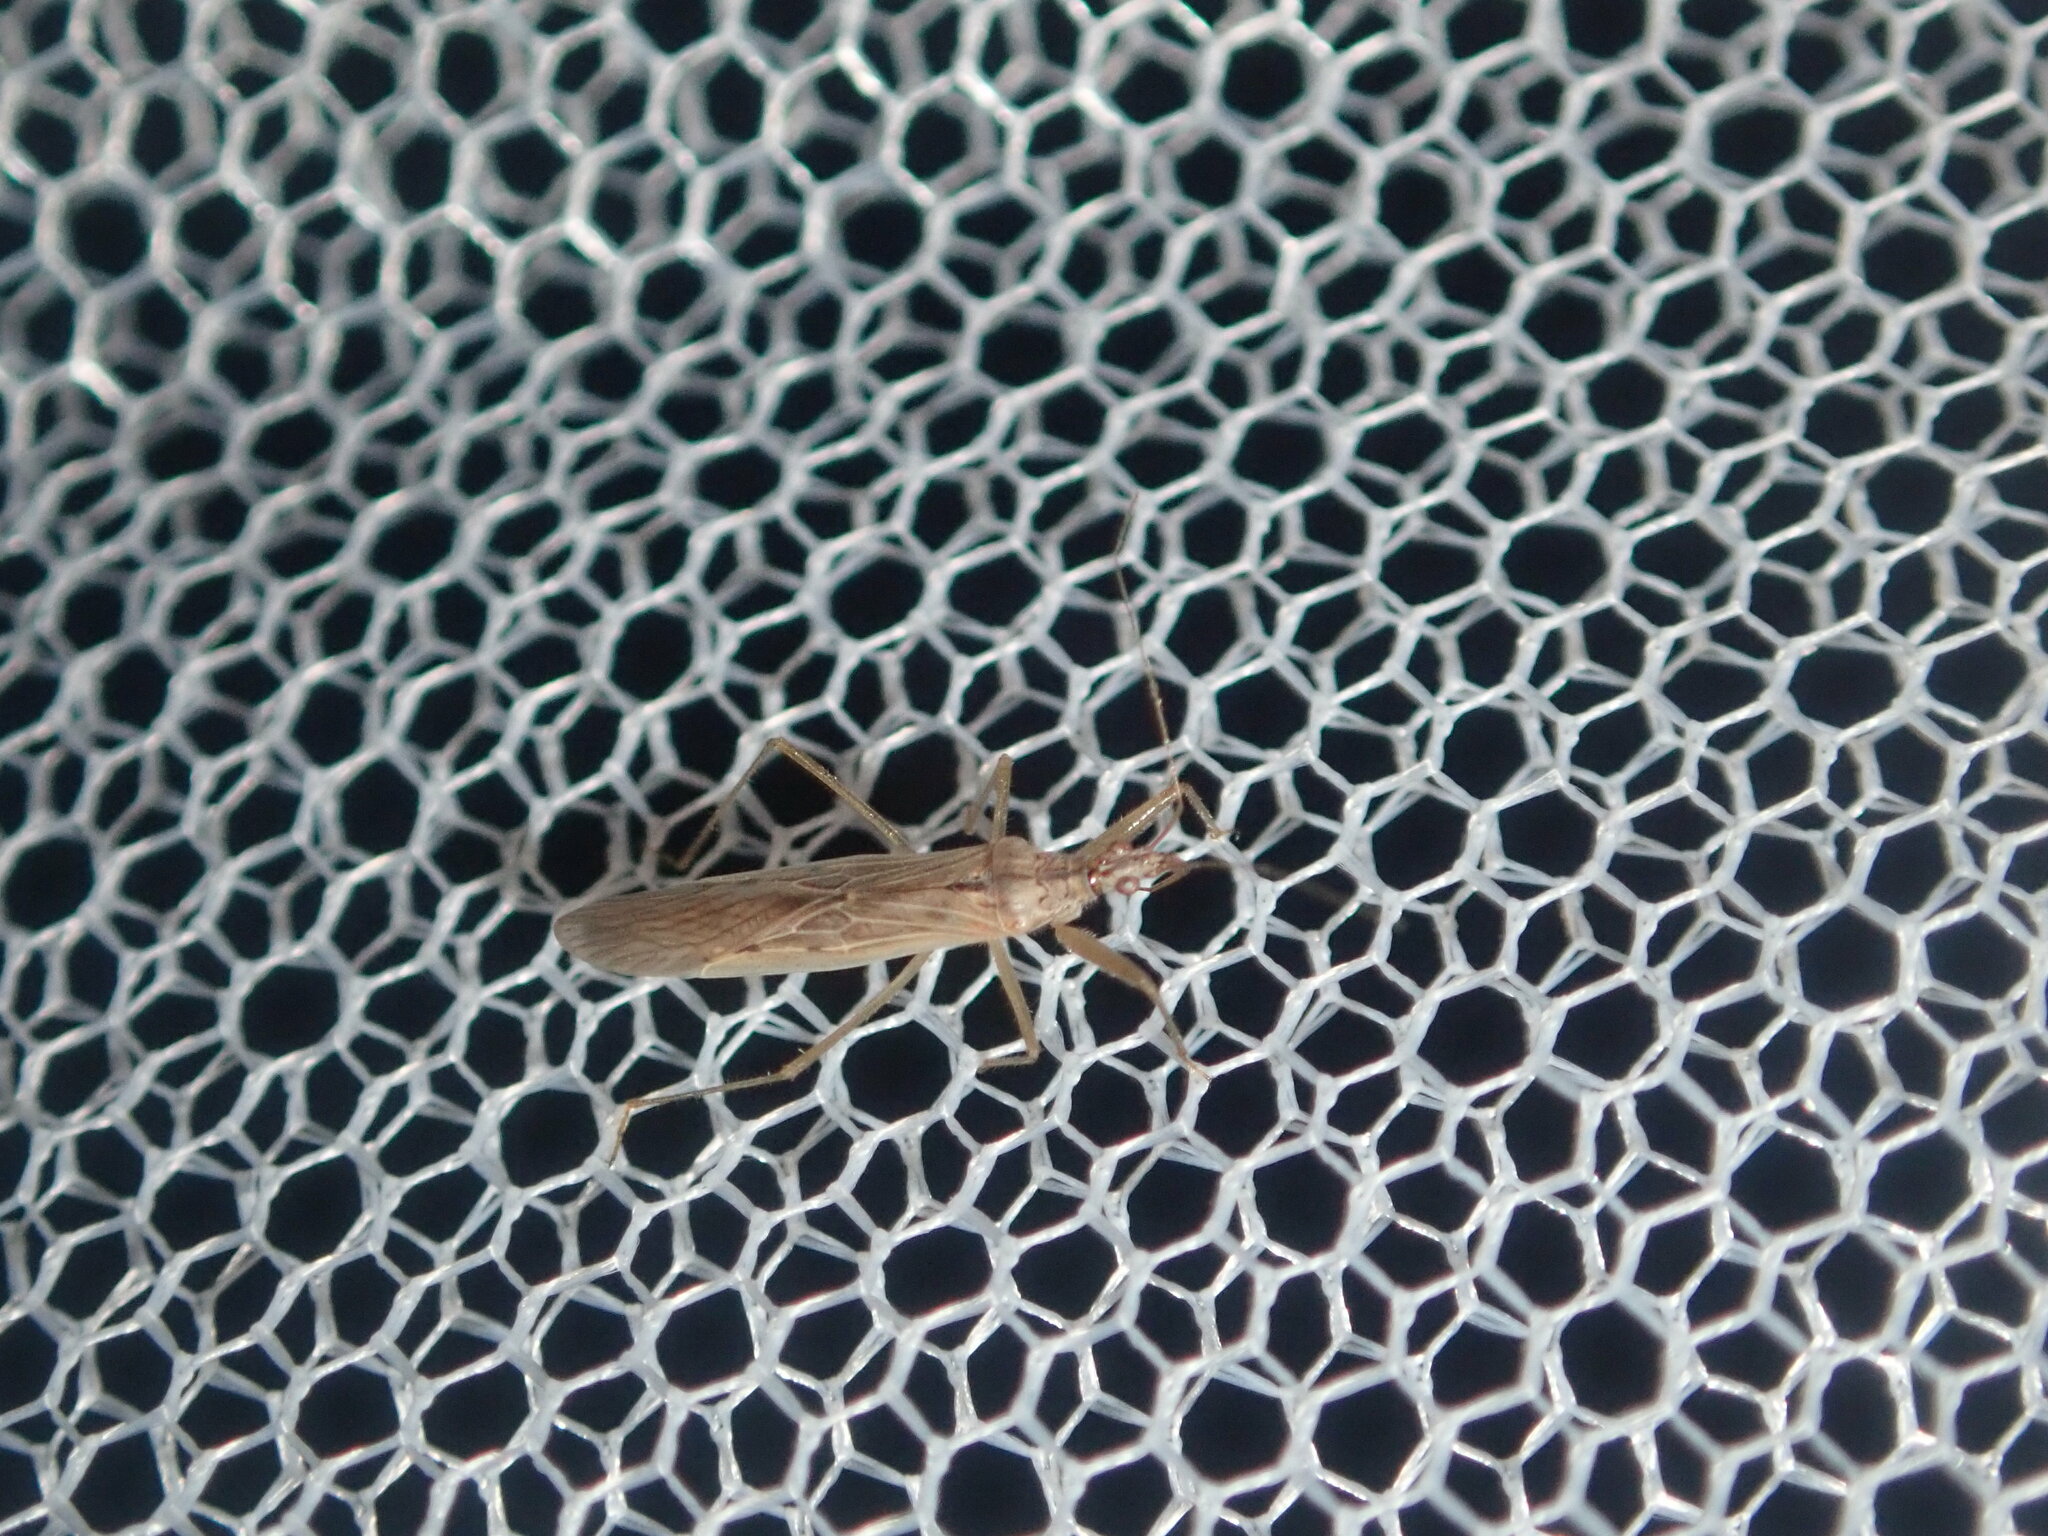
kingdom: Animalia
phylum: Arthropoda
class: Insecta
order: Hemiptera
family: Nabidae
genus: Nabis
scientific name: Nabis kinbergii
